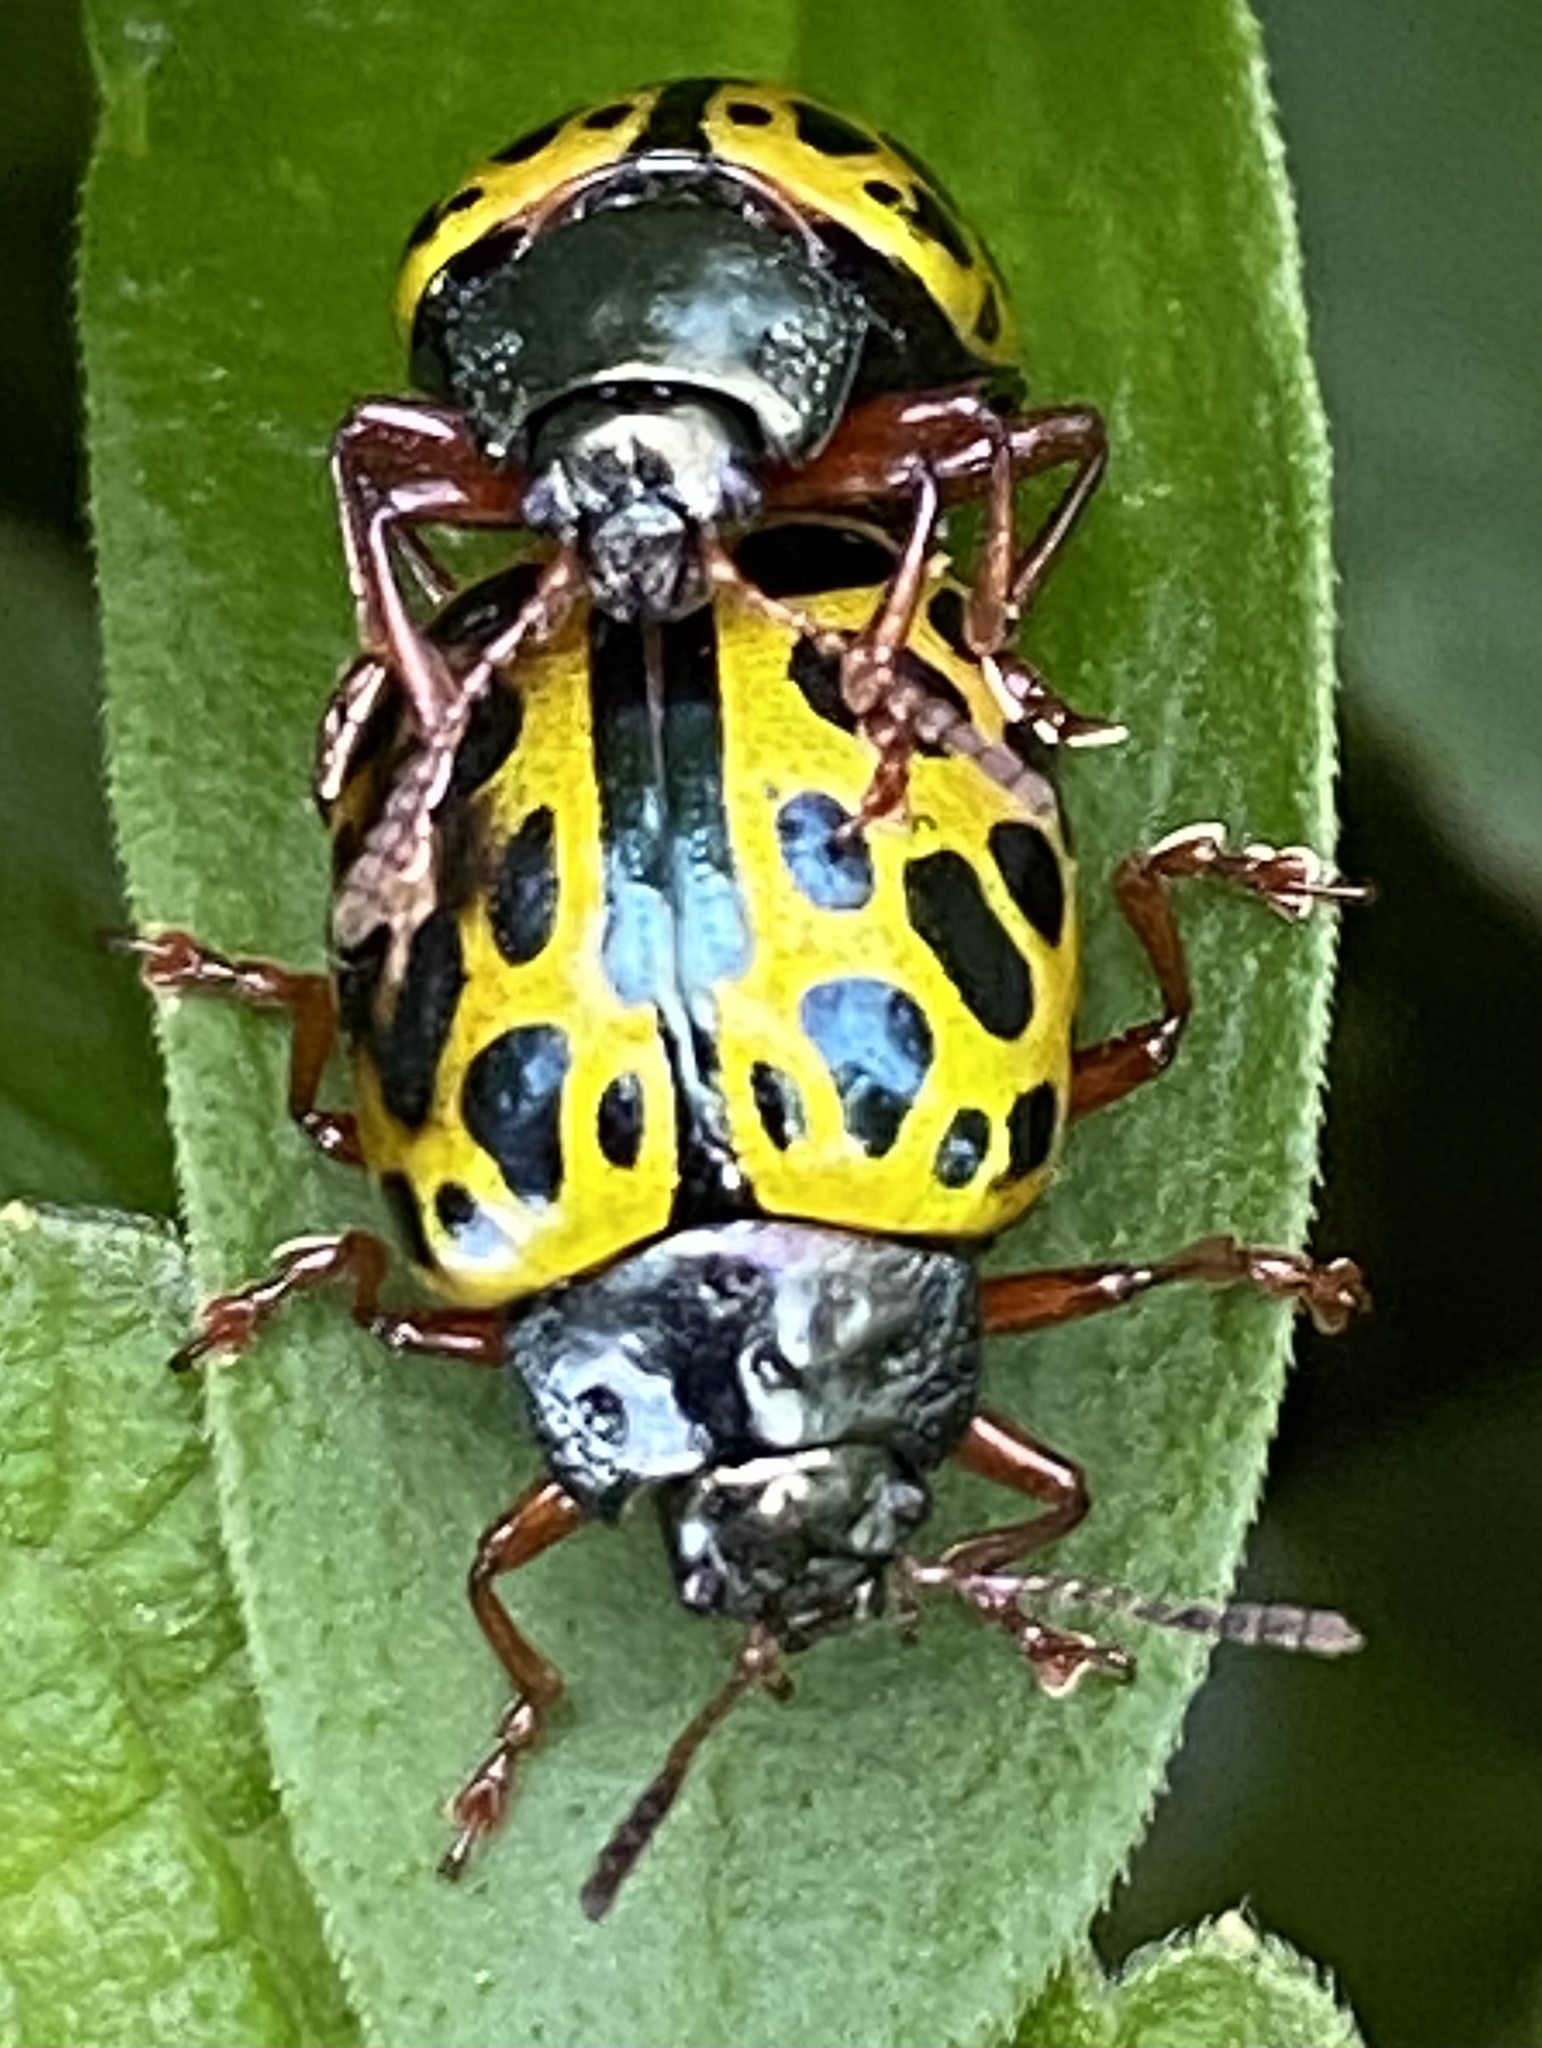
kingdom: Animalia
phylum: Arthropoda
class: Insecta
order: Coleoptera
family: Chrysomelidae
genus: Calligrapha
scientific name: Calligrapha polyspila
